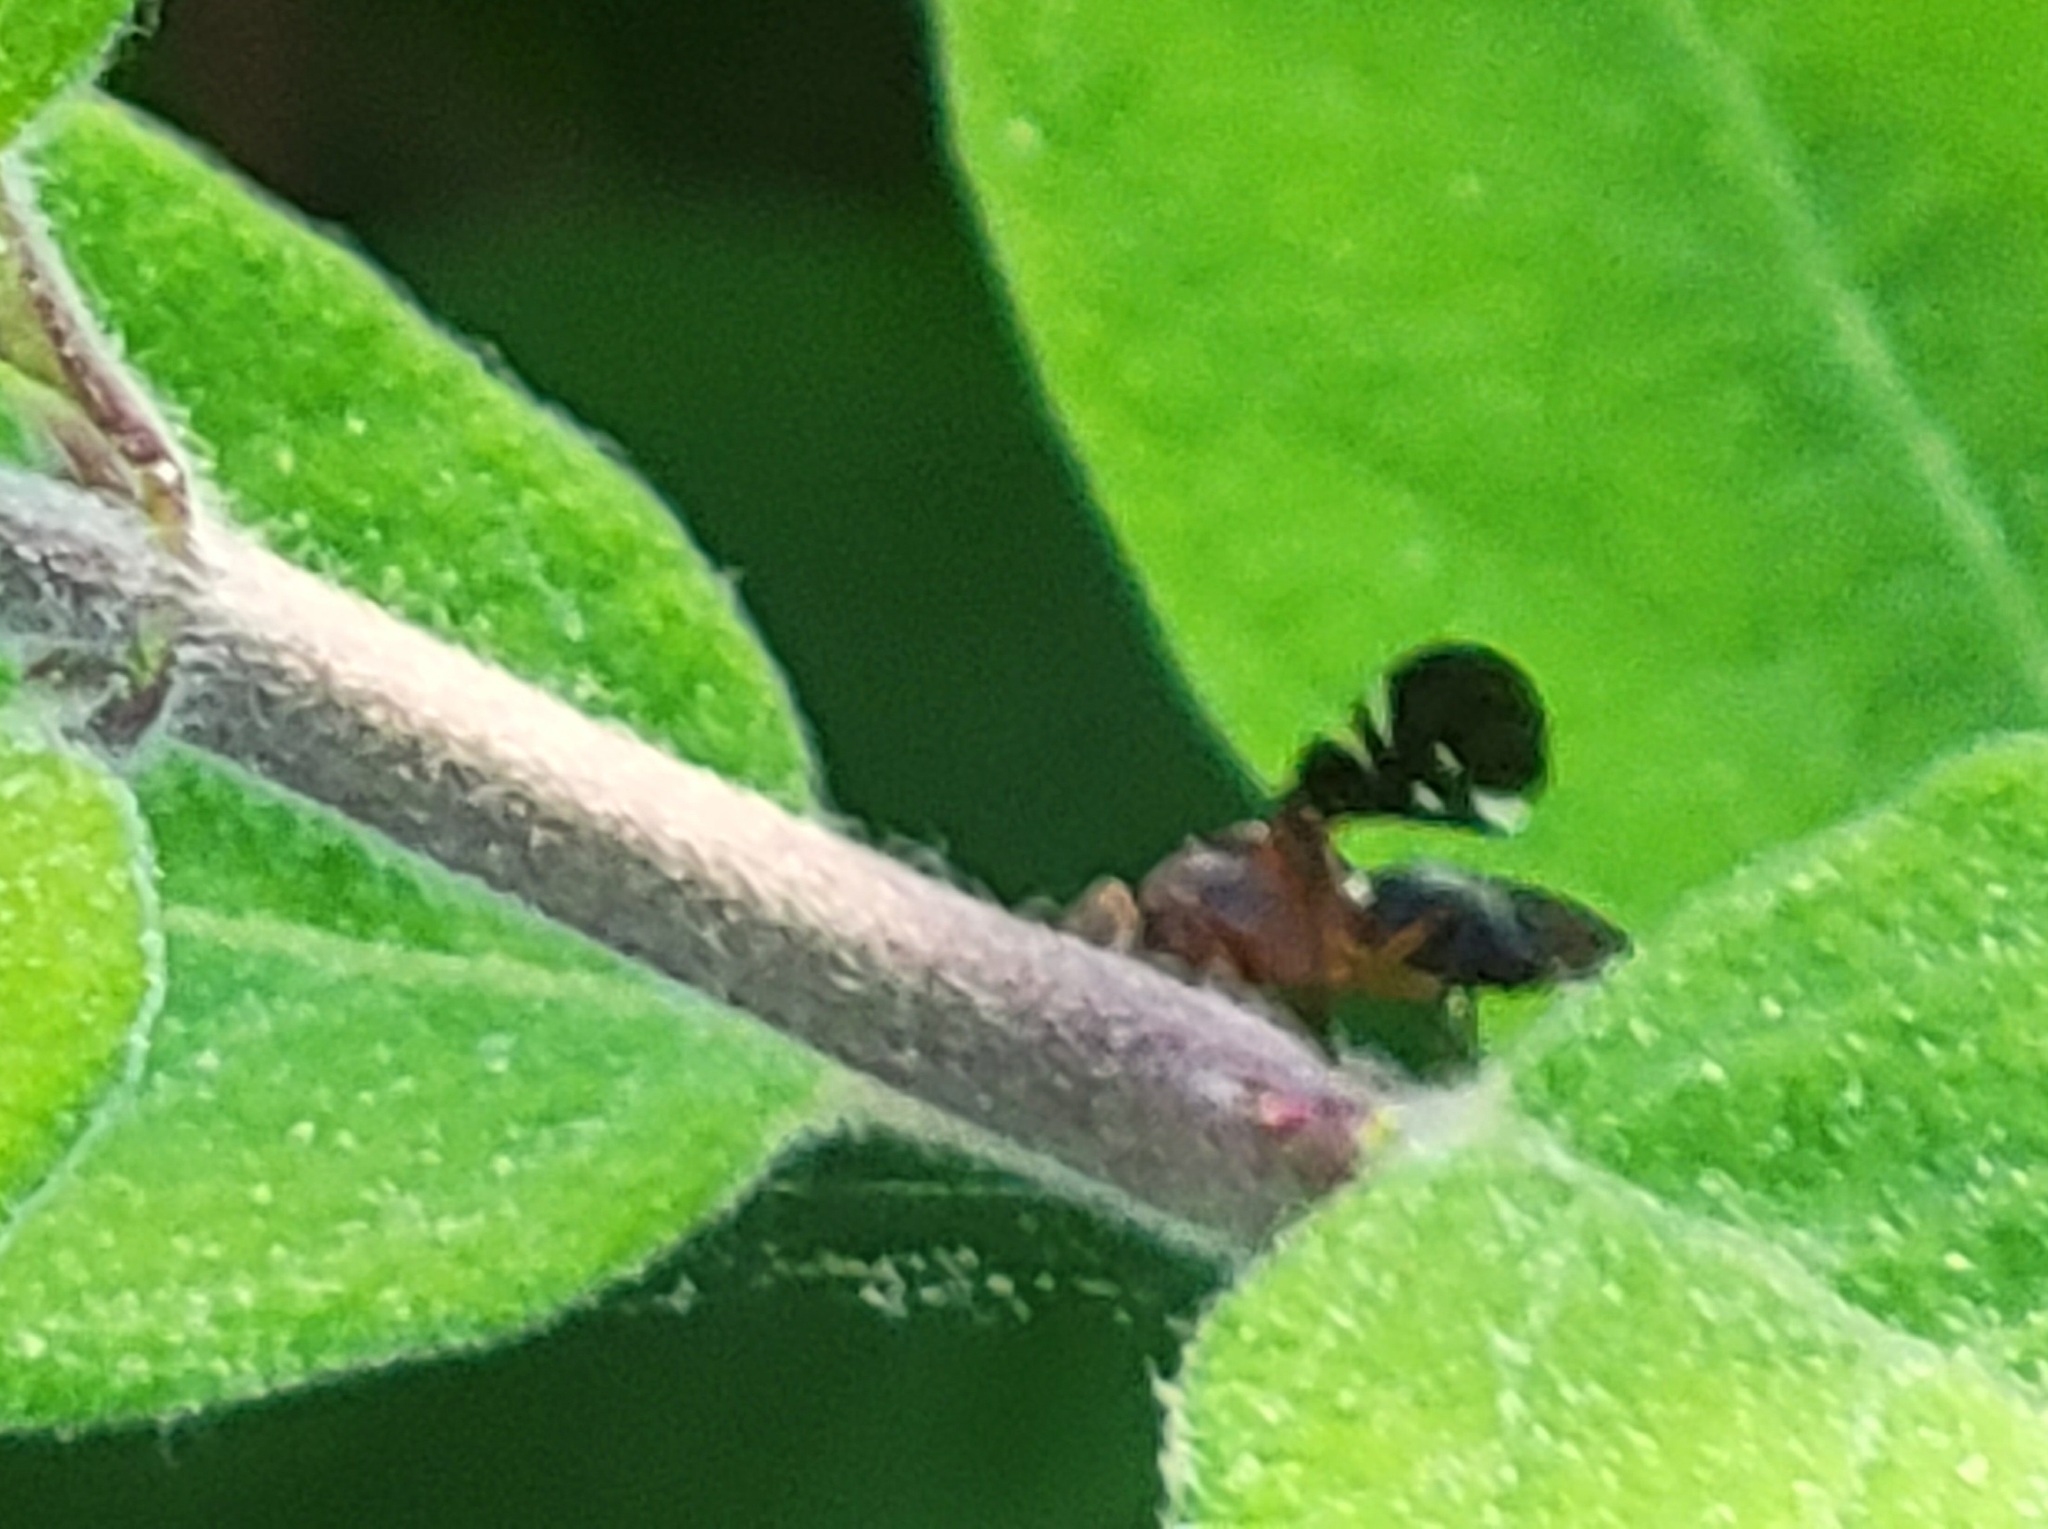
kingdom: Animalia
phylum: Arthropoda
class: Insecta
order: Diptera
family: Ulidiidae
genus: Delphinia
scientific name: Delphinia picta
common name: Common picture-winged fly
